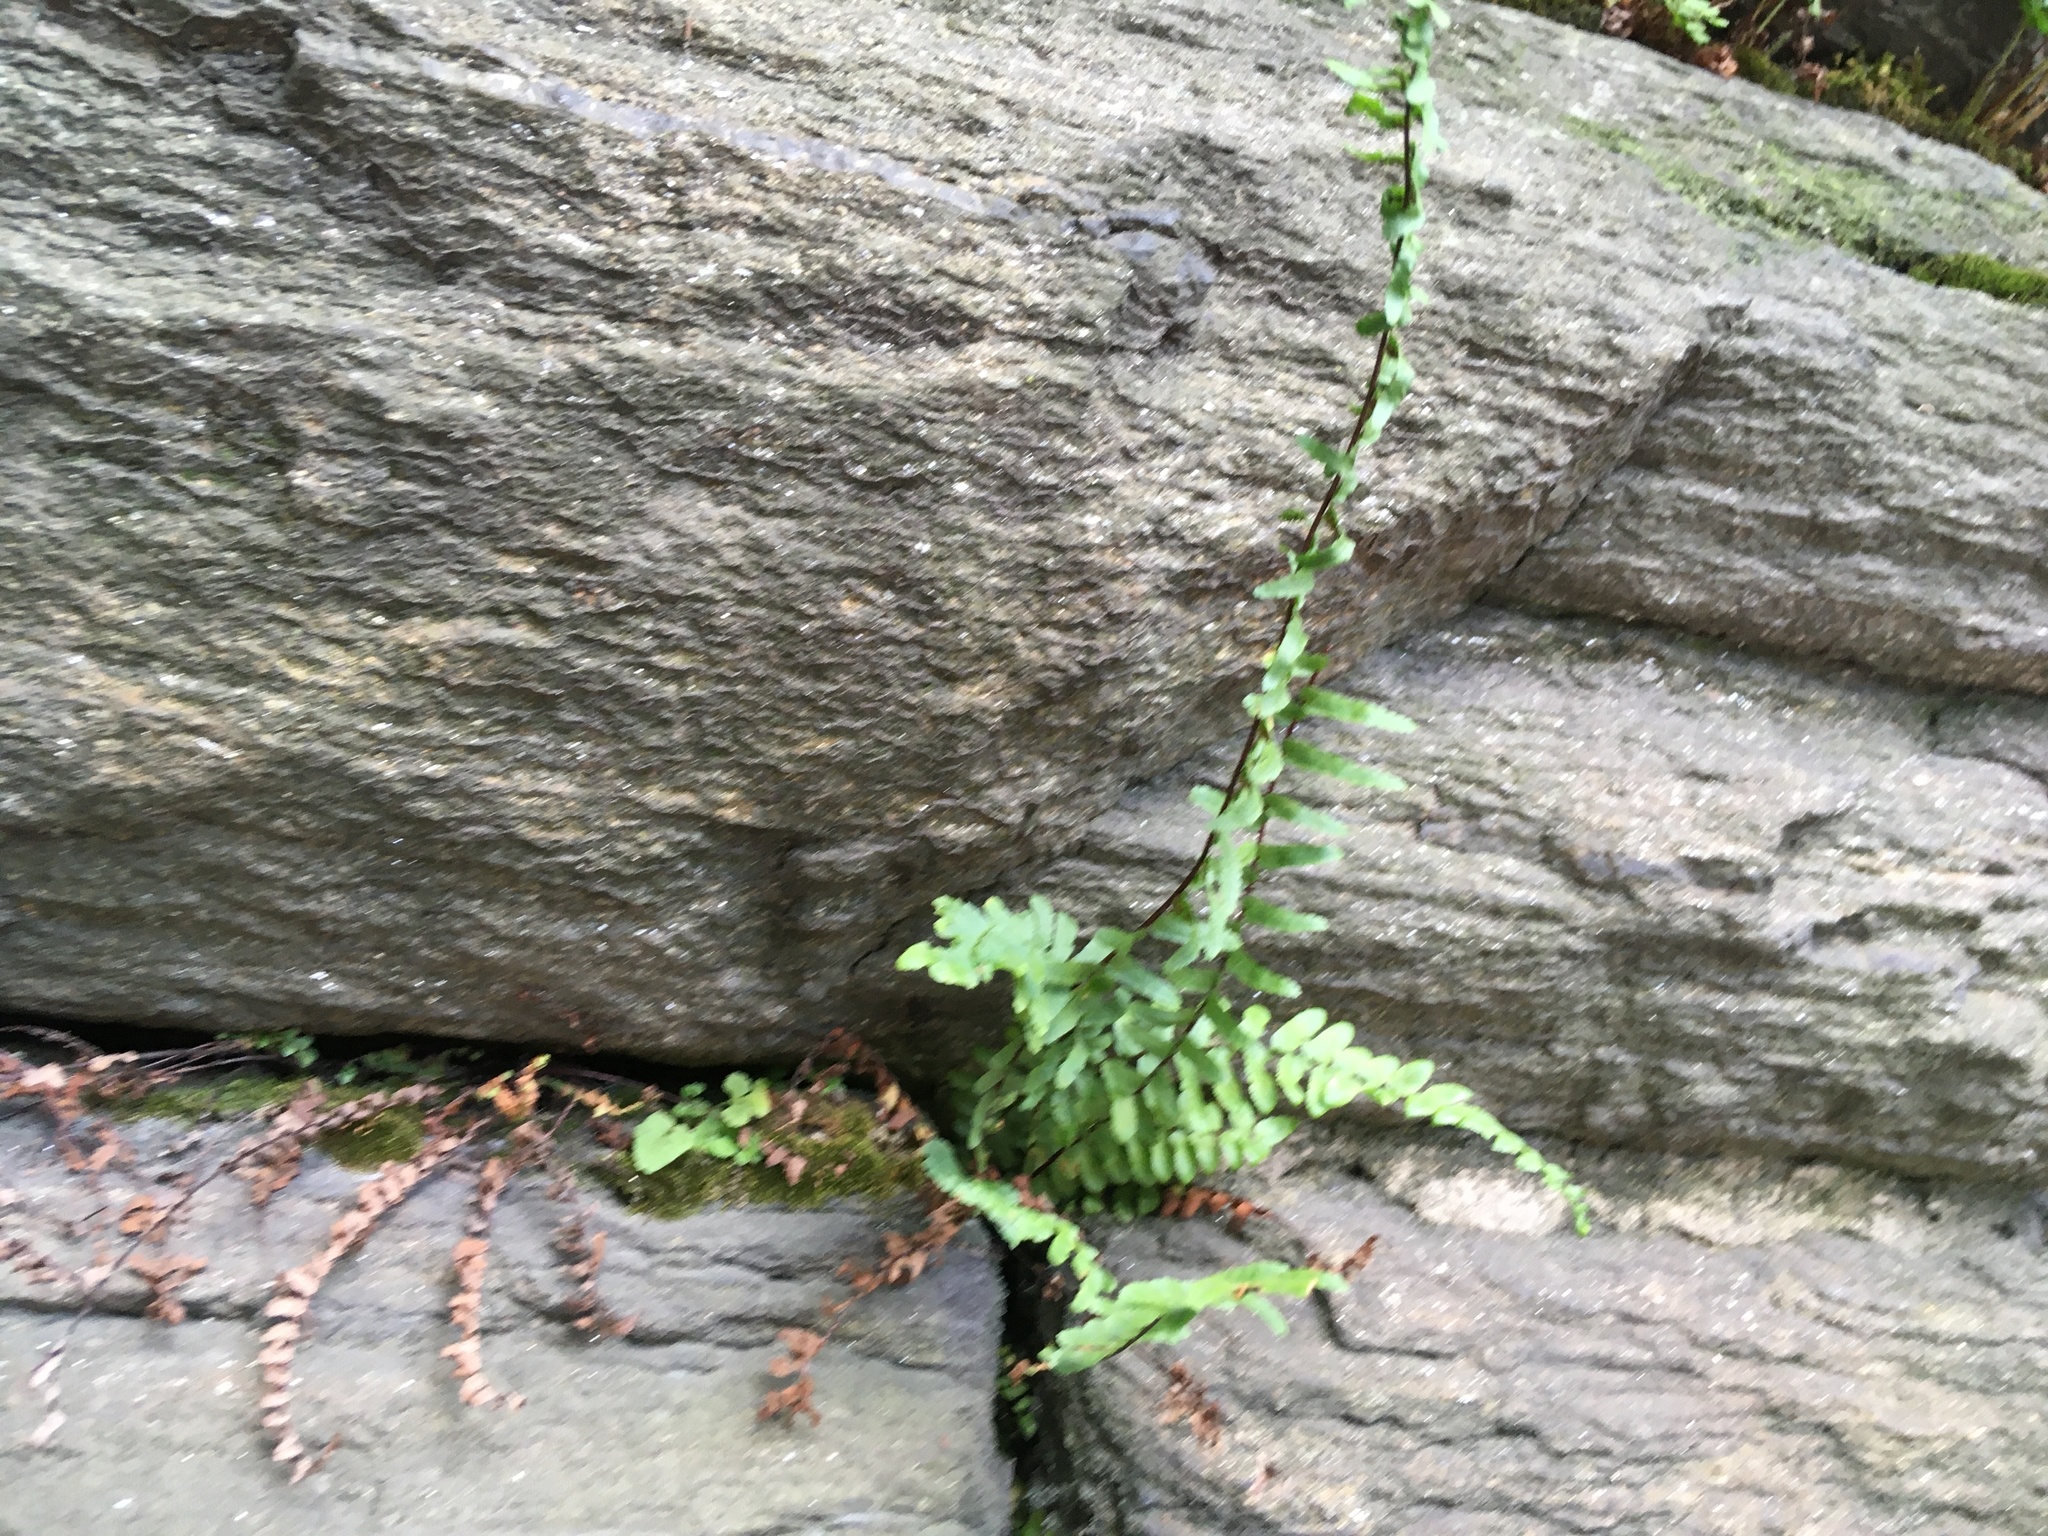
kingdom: Plantae
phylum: Tracheophyta
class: Polypodiopsida
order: Polypodiales
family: Aspleniaceae
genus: Asplenium
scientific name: Asplenium platyneuron
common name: Ebony spleenwort
